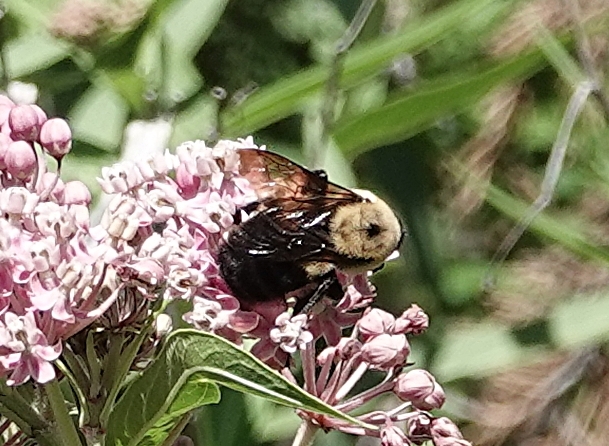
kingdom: Animalia
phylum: Arthropoda
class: Insecta
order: Hymenoptera
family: Apidae
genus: Bombus
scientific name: Bombus griseocollis
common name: Brown-belted bumble bee
